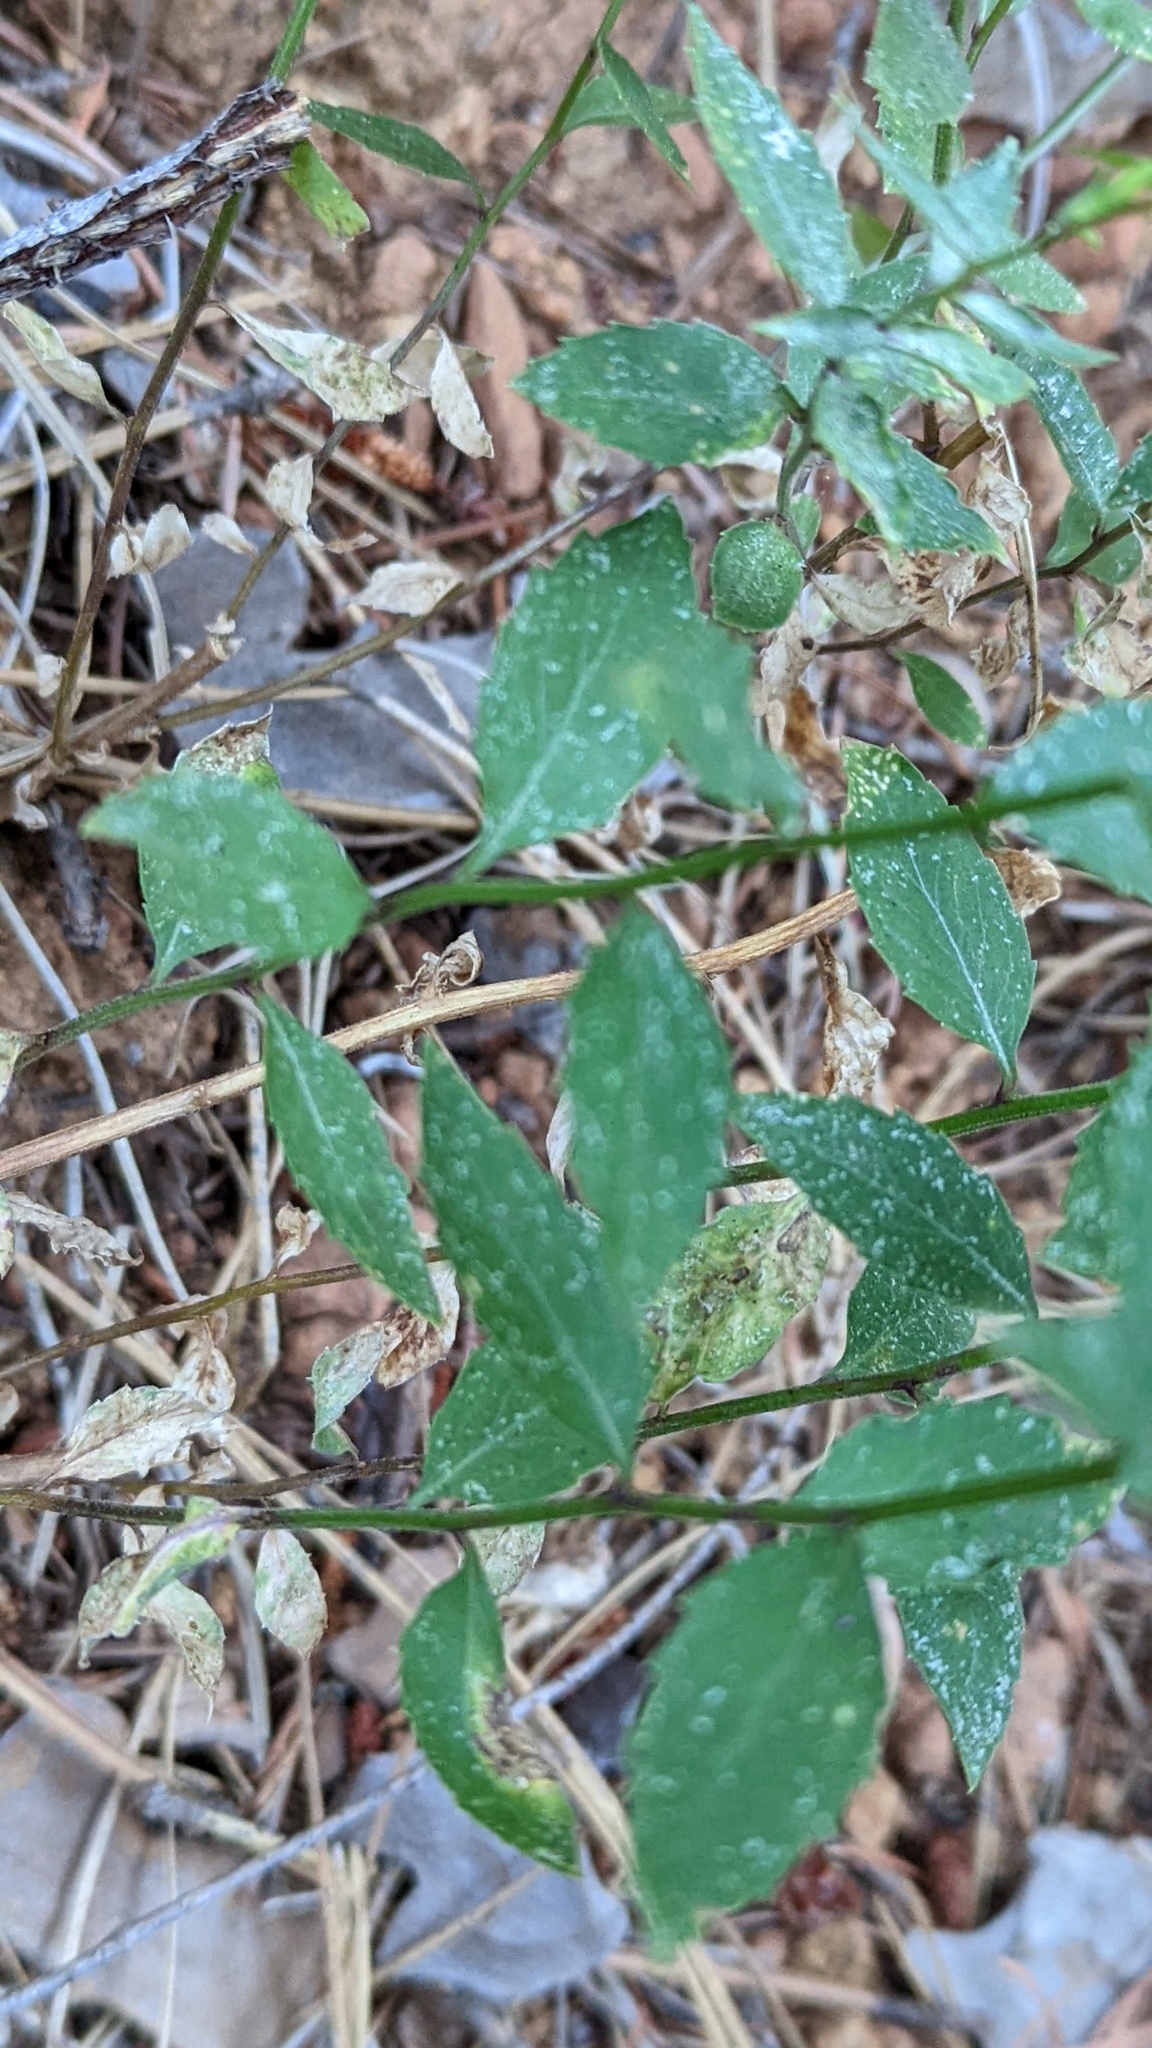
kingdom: Plantae
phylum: Tracheophyta
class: Magnoliopsida
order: Asterales
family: Campanulaceae
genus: Smithiastrum
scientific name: Smithiastrum prenanthoides
